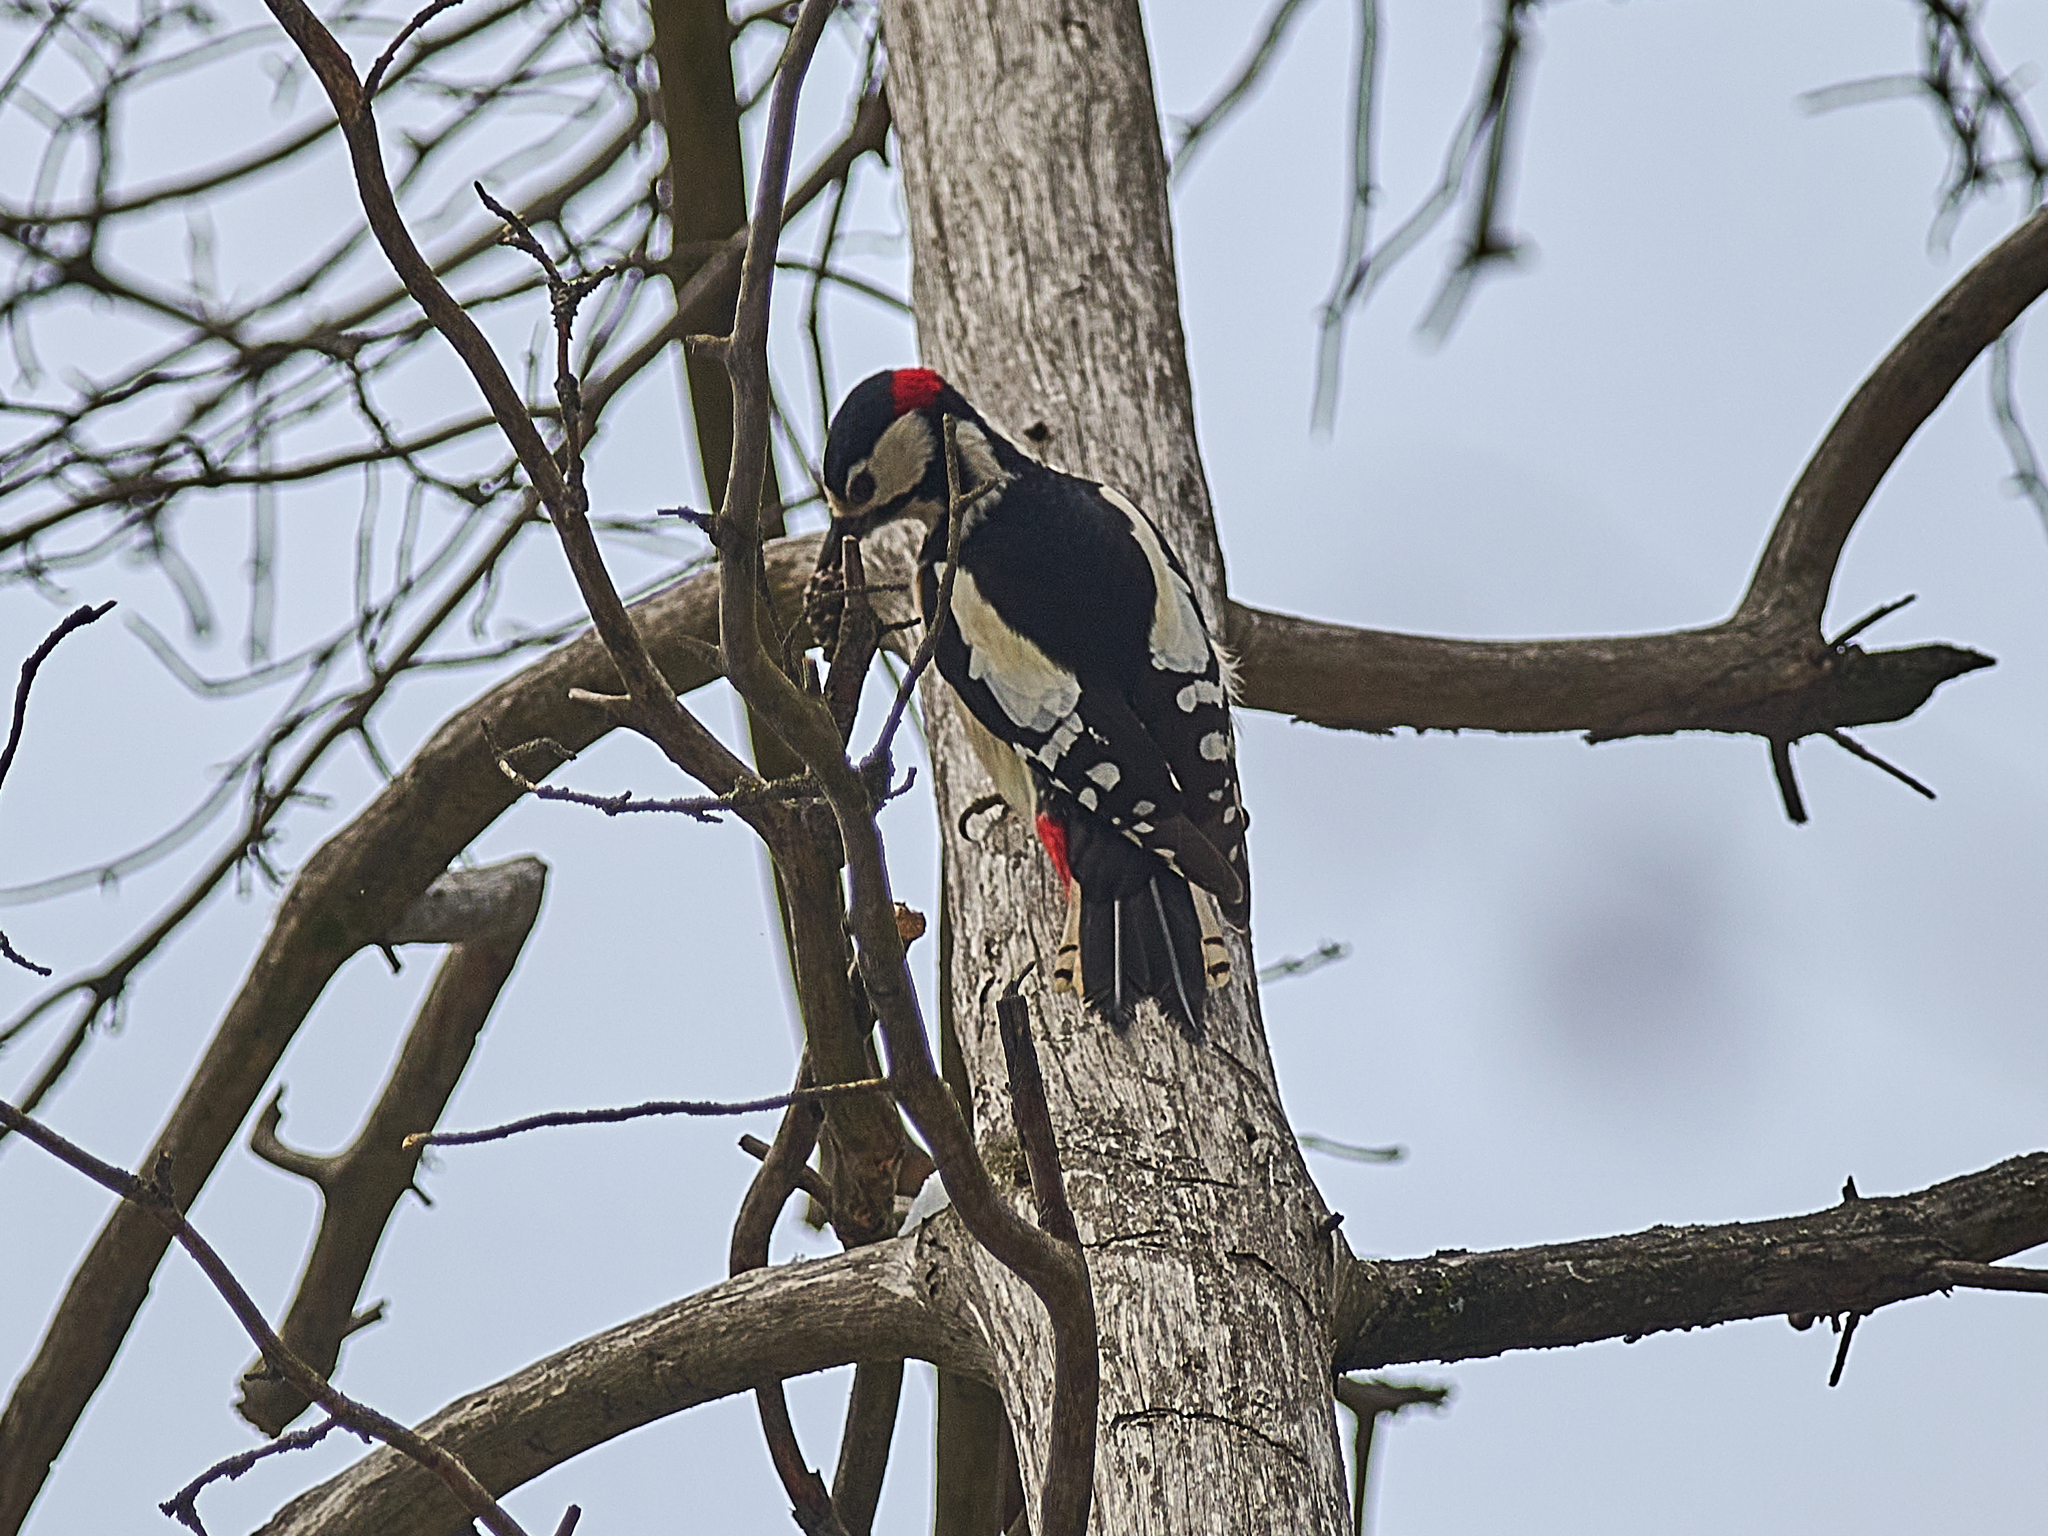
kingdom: Animalia
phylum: Chordata
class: Aves
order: Piciformes
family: Picidae
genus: Dendrocopos
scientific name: Dendrocopos major
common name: Great spotted woodpecker
